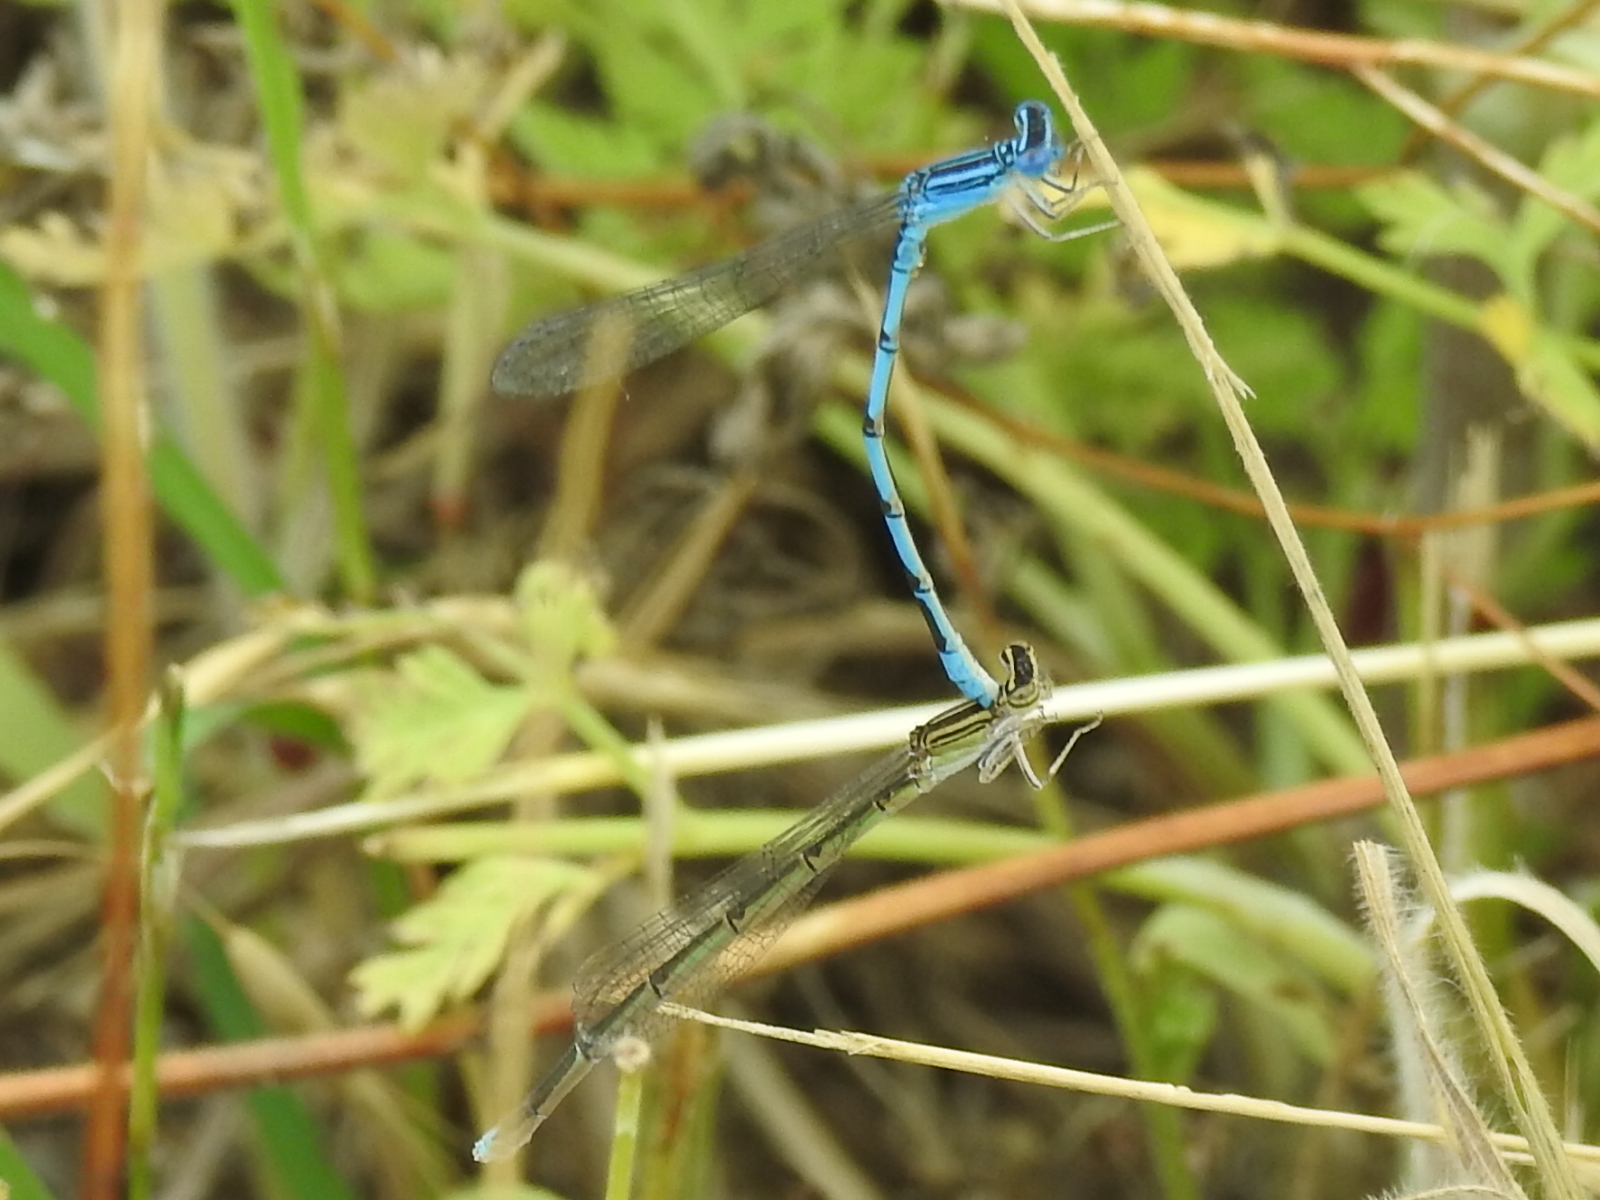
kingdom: Animalia
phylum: Arthropoda
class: Insecta
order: Odonata
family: Coenagrionidae
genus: Enallagma
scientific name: Enallagma basidens
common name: Double-striped bluet
